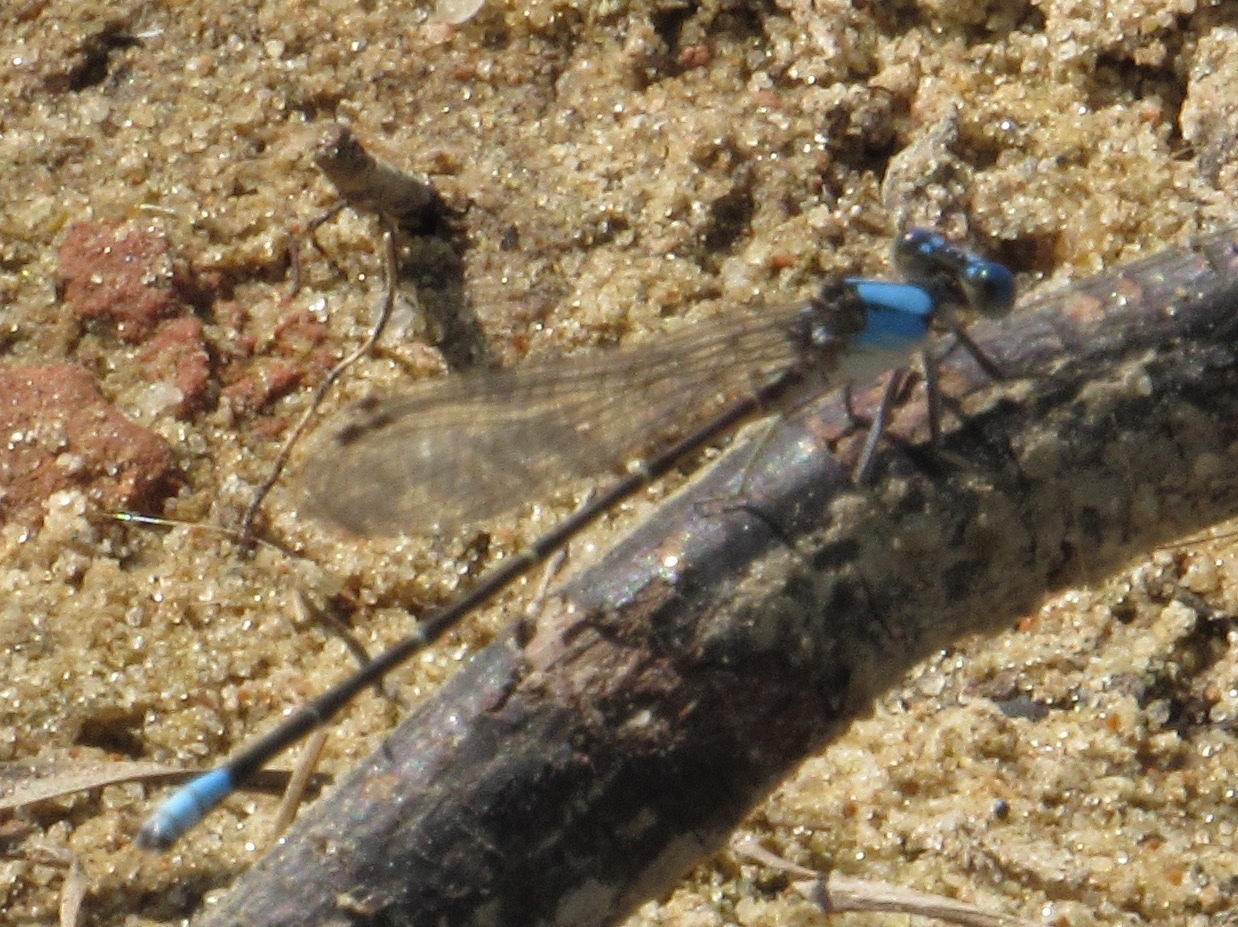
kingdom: Animalia
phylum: Arthropoda
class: Insecta
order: Odonata
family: Coenagrionidae
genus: Argia
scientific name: Argia apicalis
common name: Blue-fronted dancer
